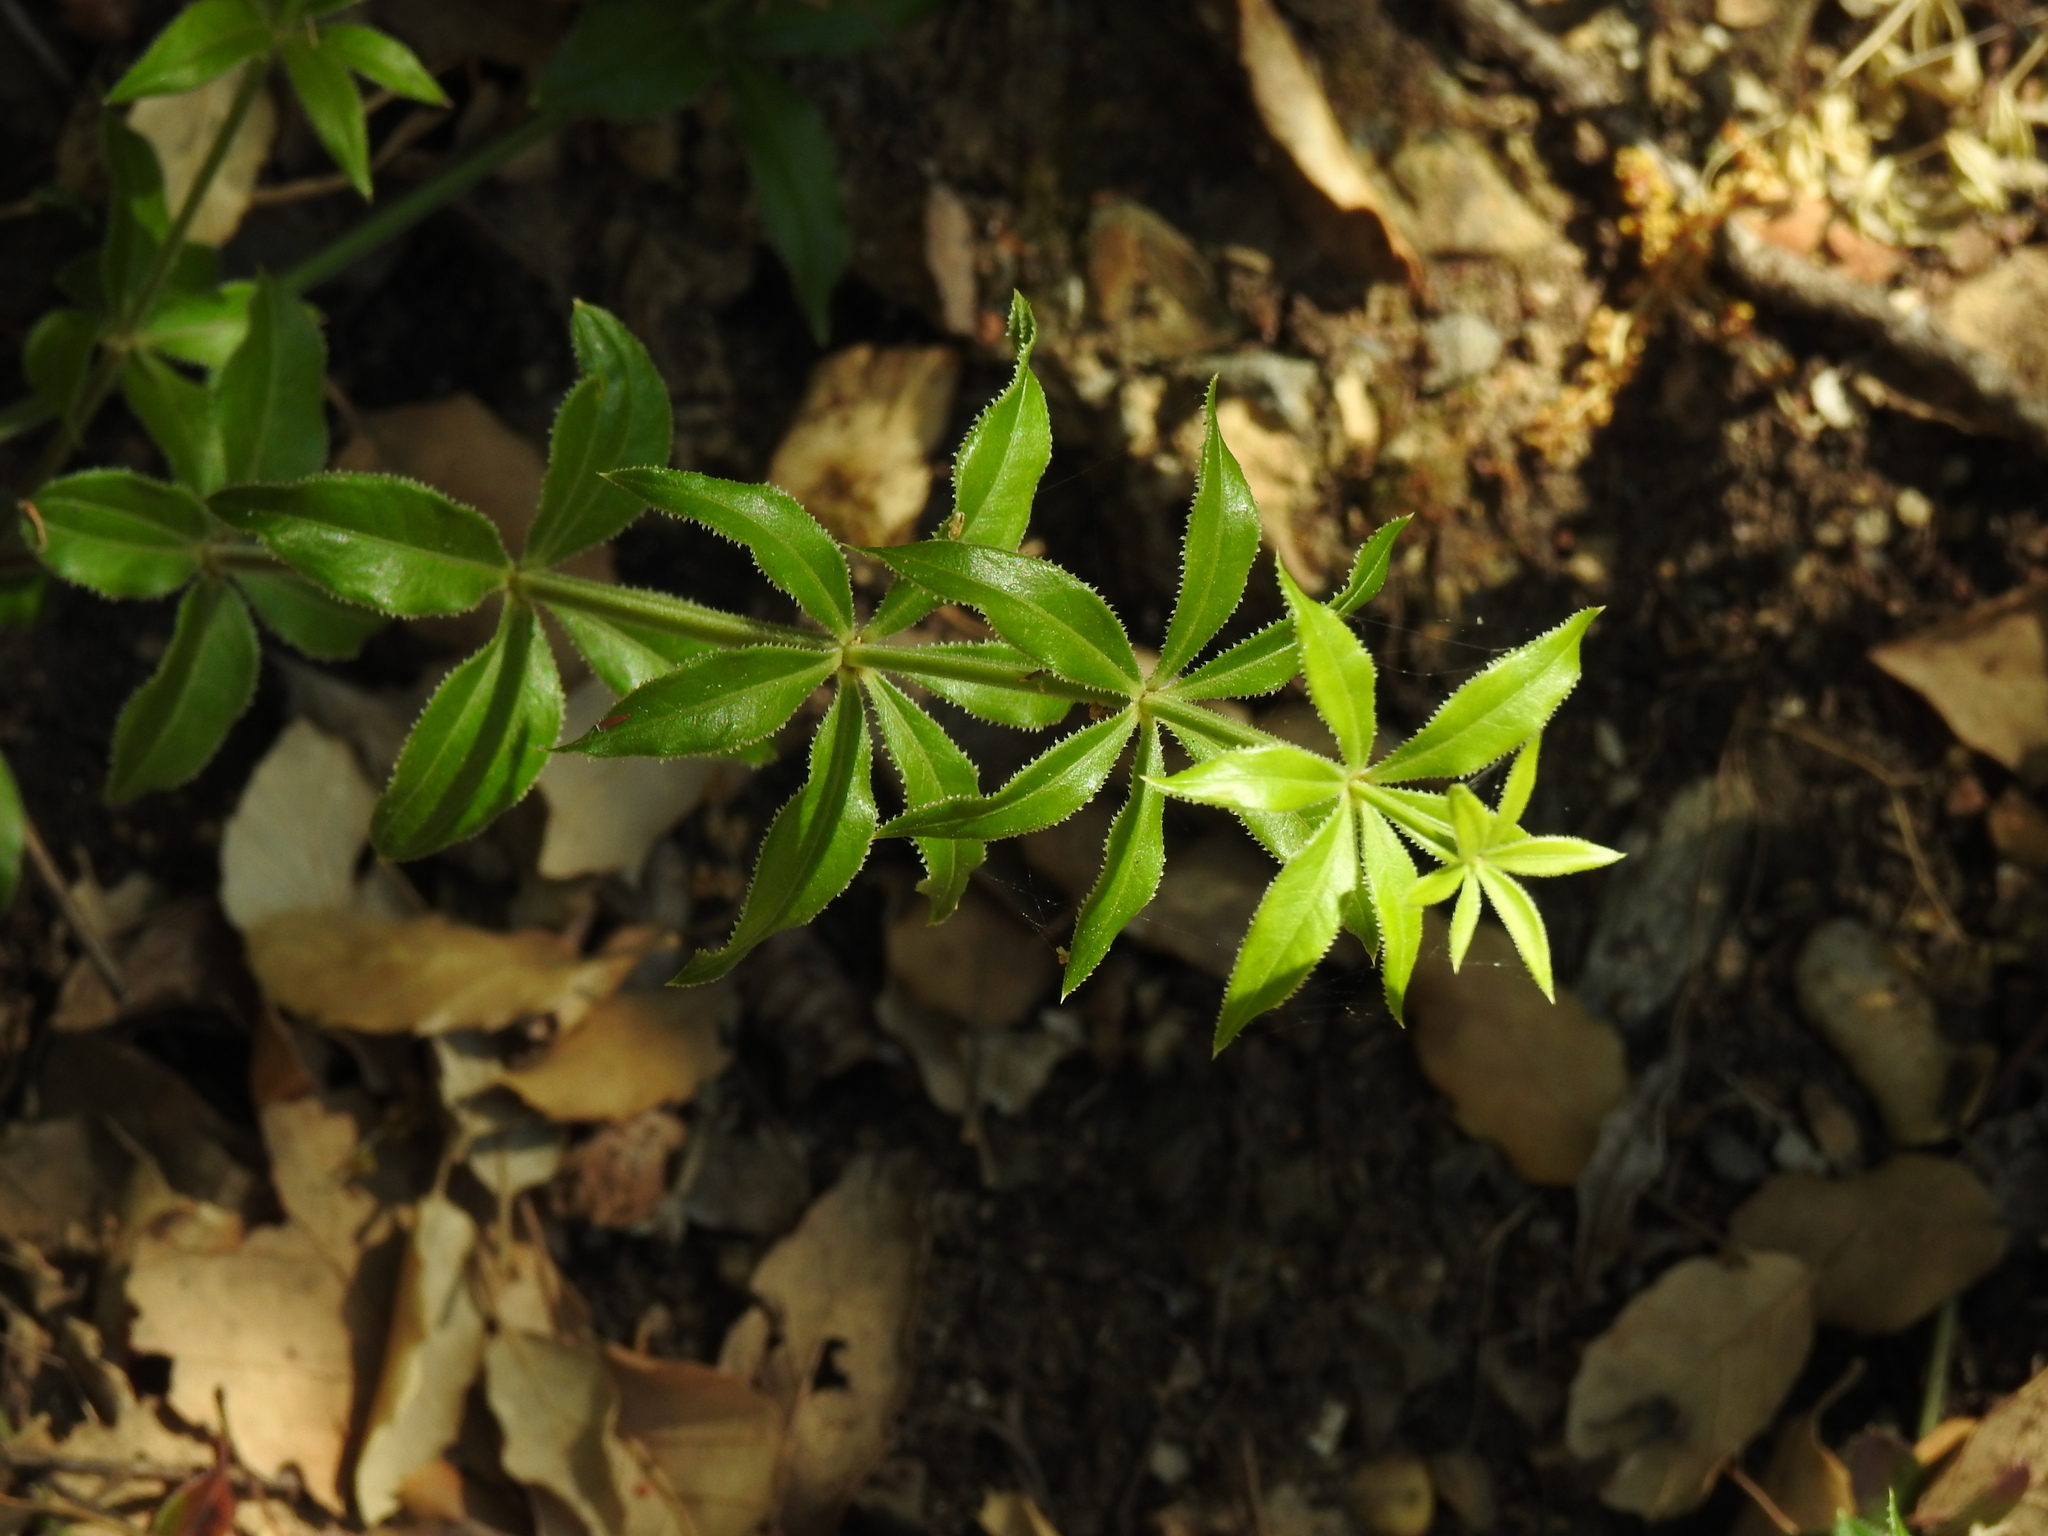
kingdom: Plantae
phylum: Tracheophyta
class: Magnoliopsida
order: Gentianales
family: Rubiaceae
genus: Rubia
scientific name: Rubia peregrina
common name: Wild madder
